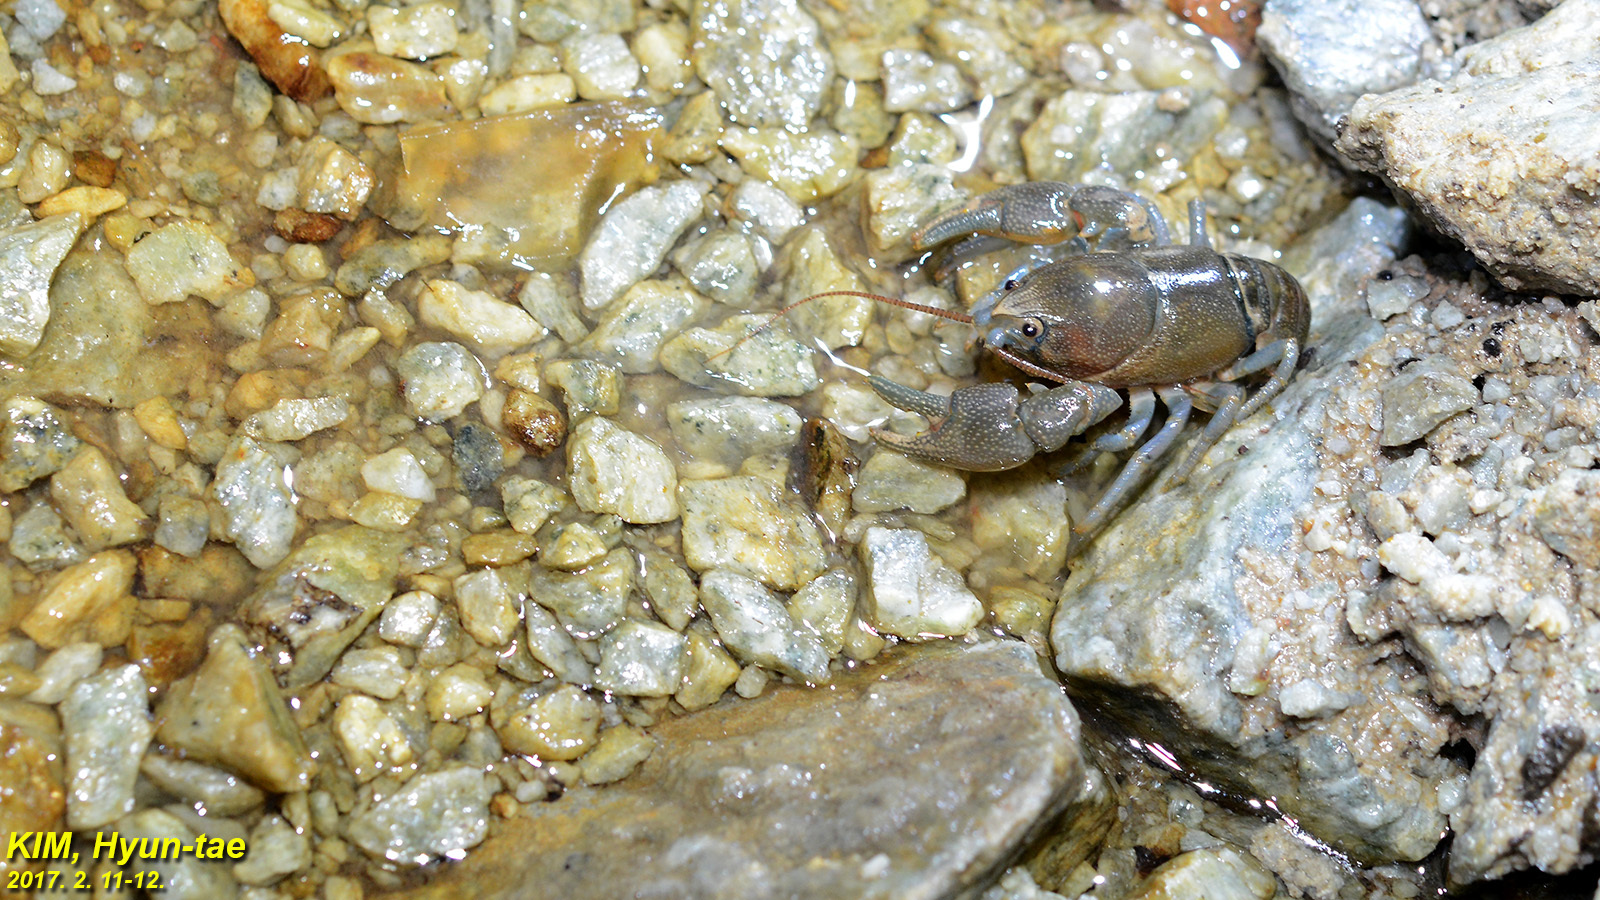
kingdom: Animalia
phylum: Arthropoda
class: Malacostraca
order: Decapoda
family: Cambaroididae
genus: Cambaroides
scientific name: Cambaroides similis
